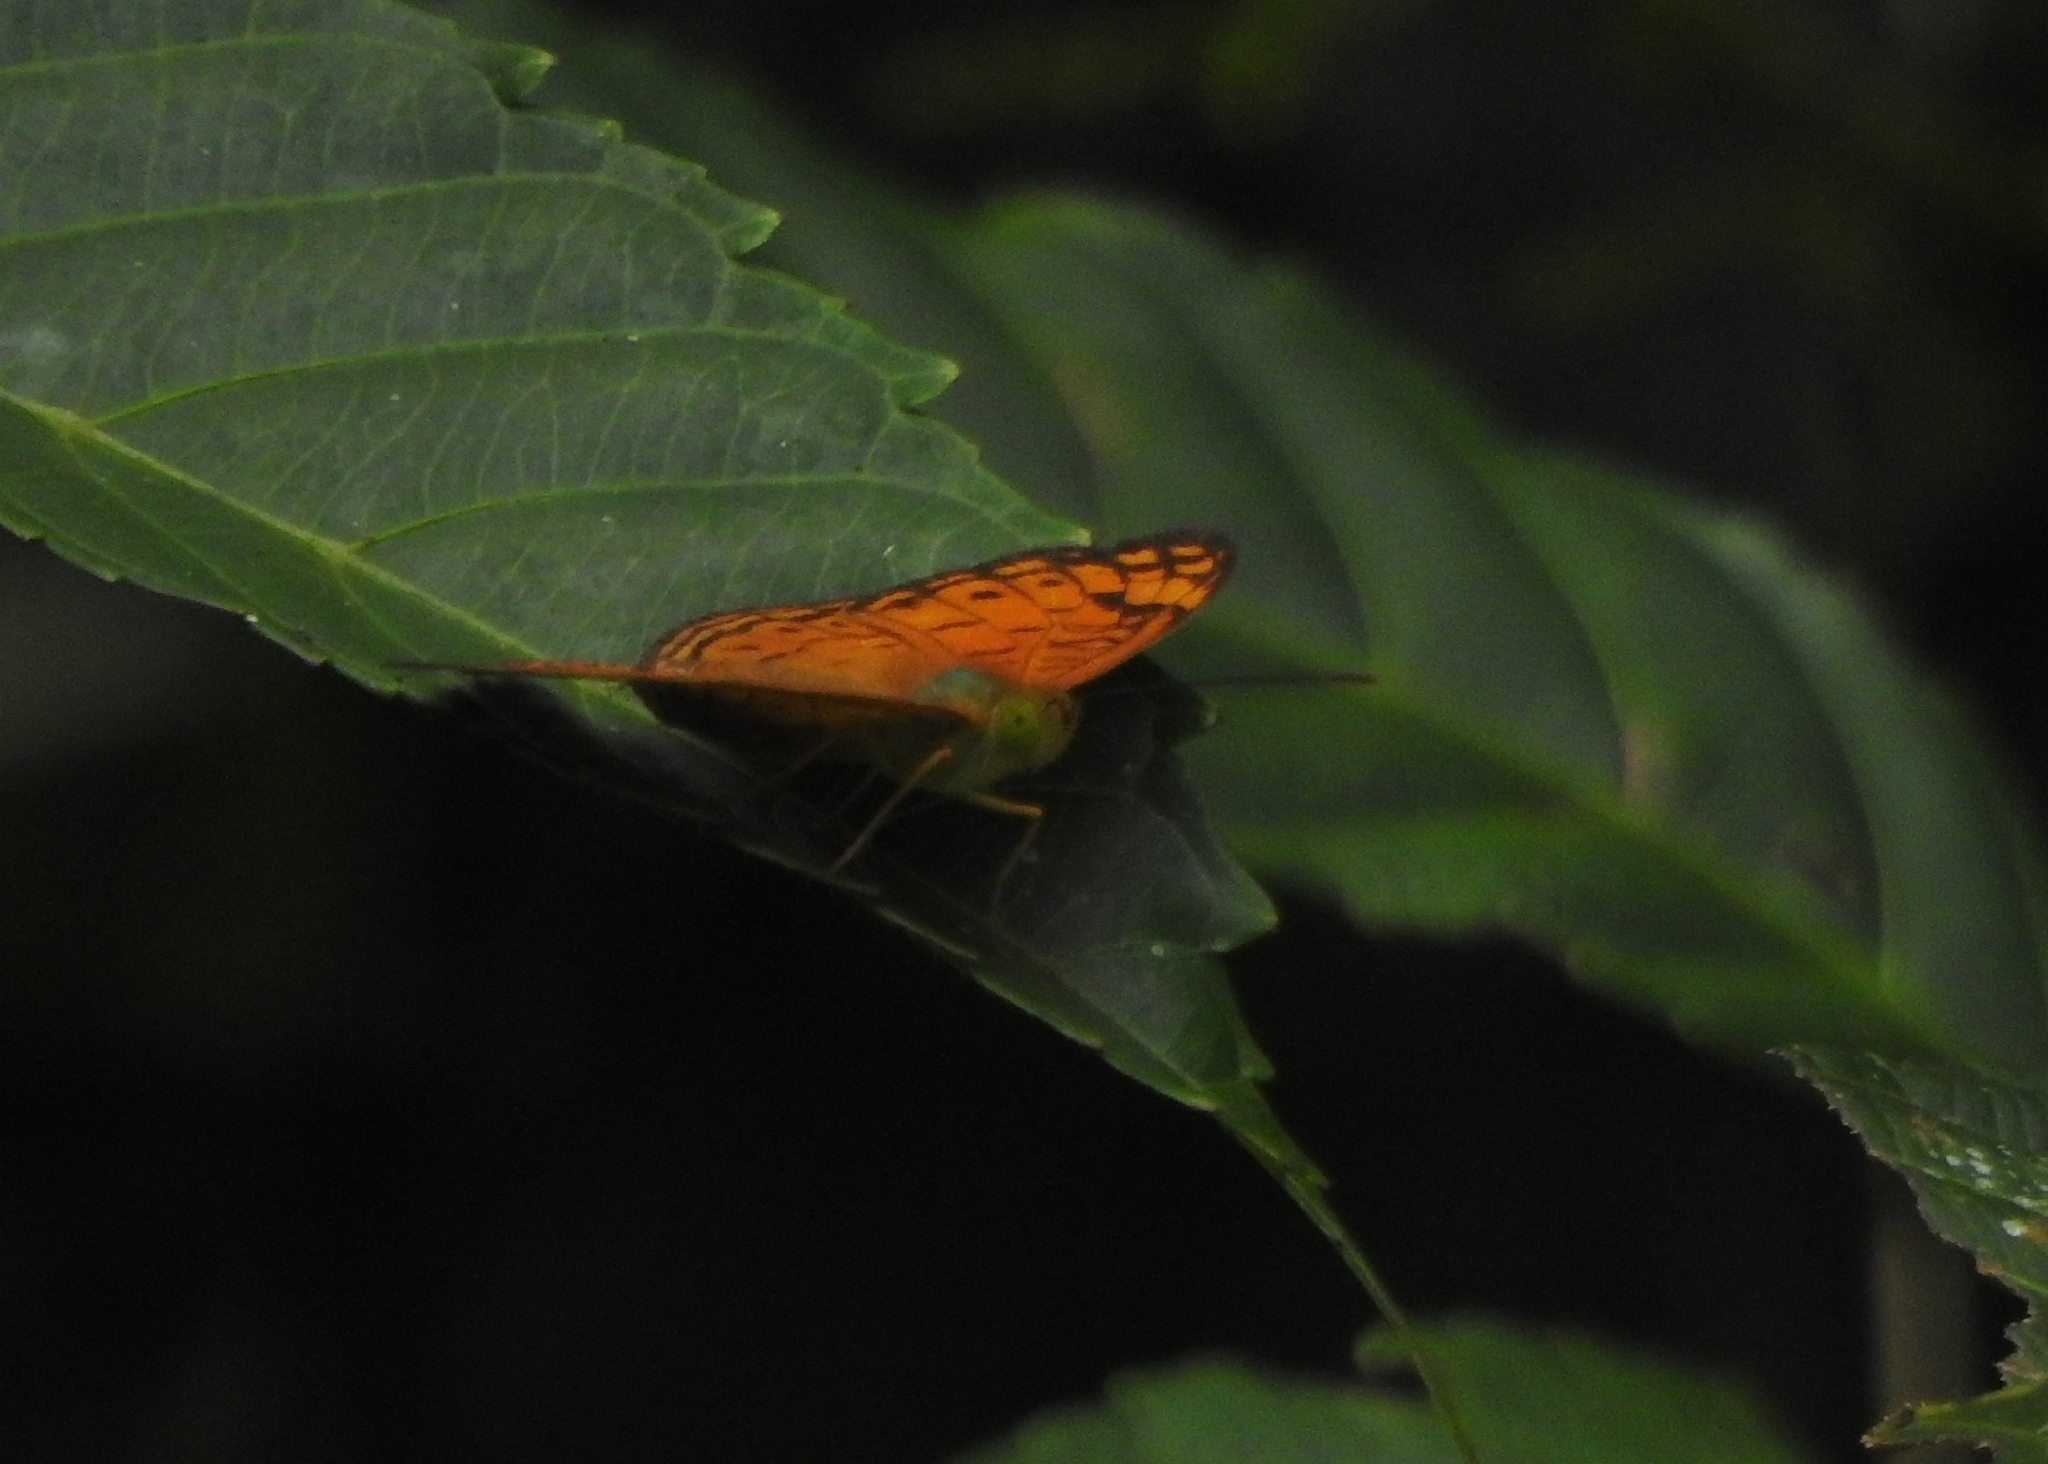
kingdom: Animalia
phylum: Arthropoda
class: Insecta
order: Lepidoptera
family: Nymphalidae
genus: Phalanta
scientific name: Phalanta alcippe
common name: Small leopard
